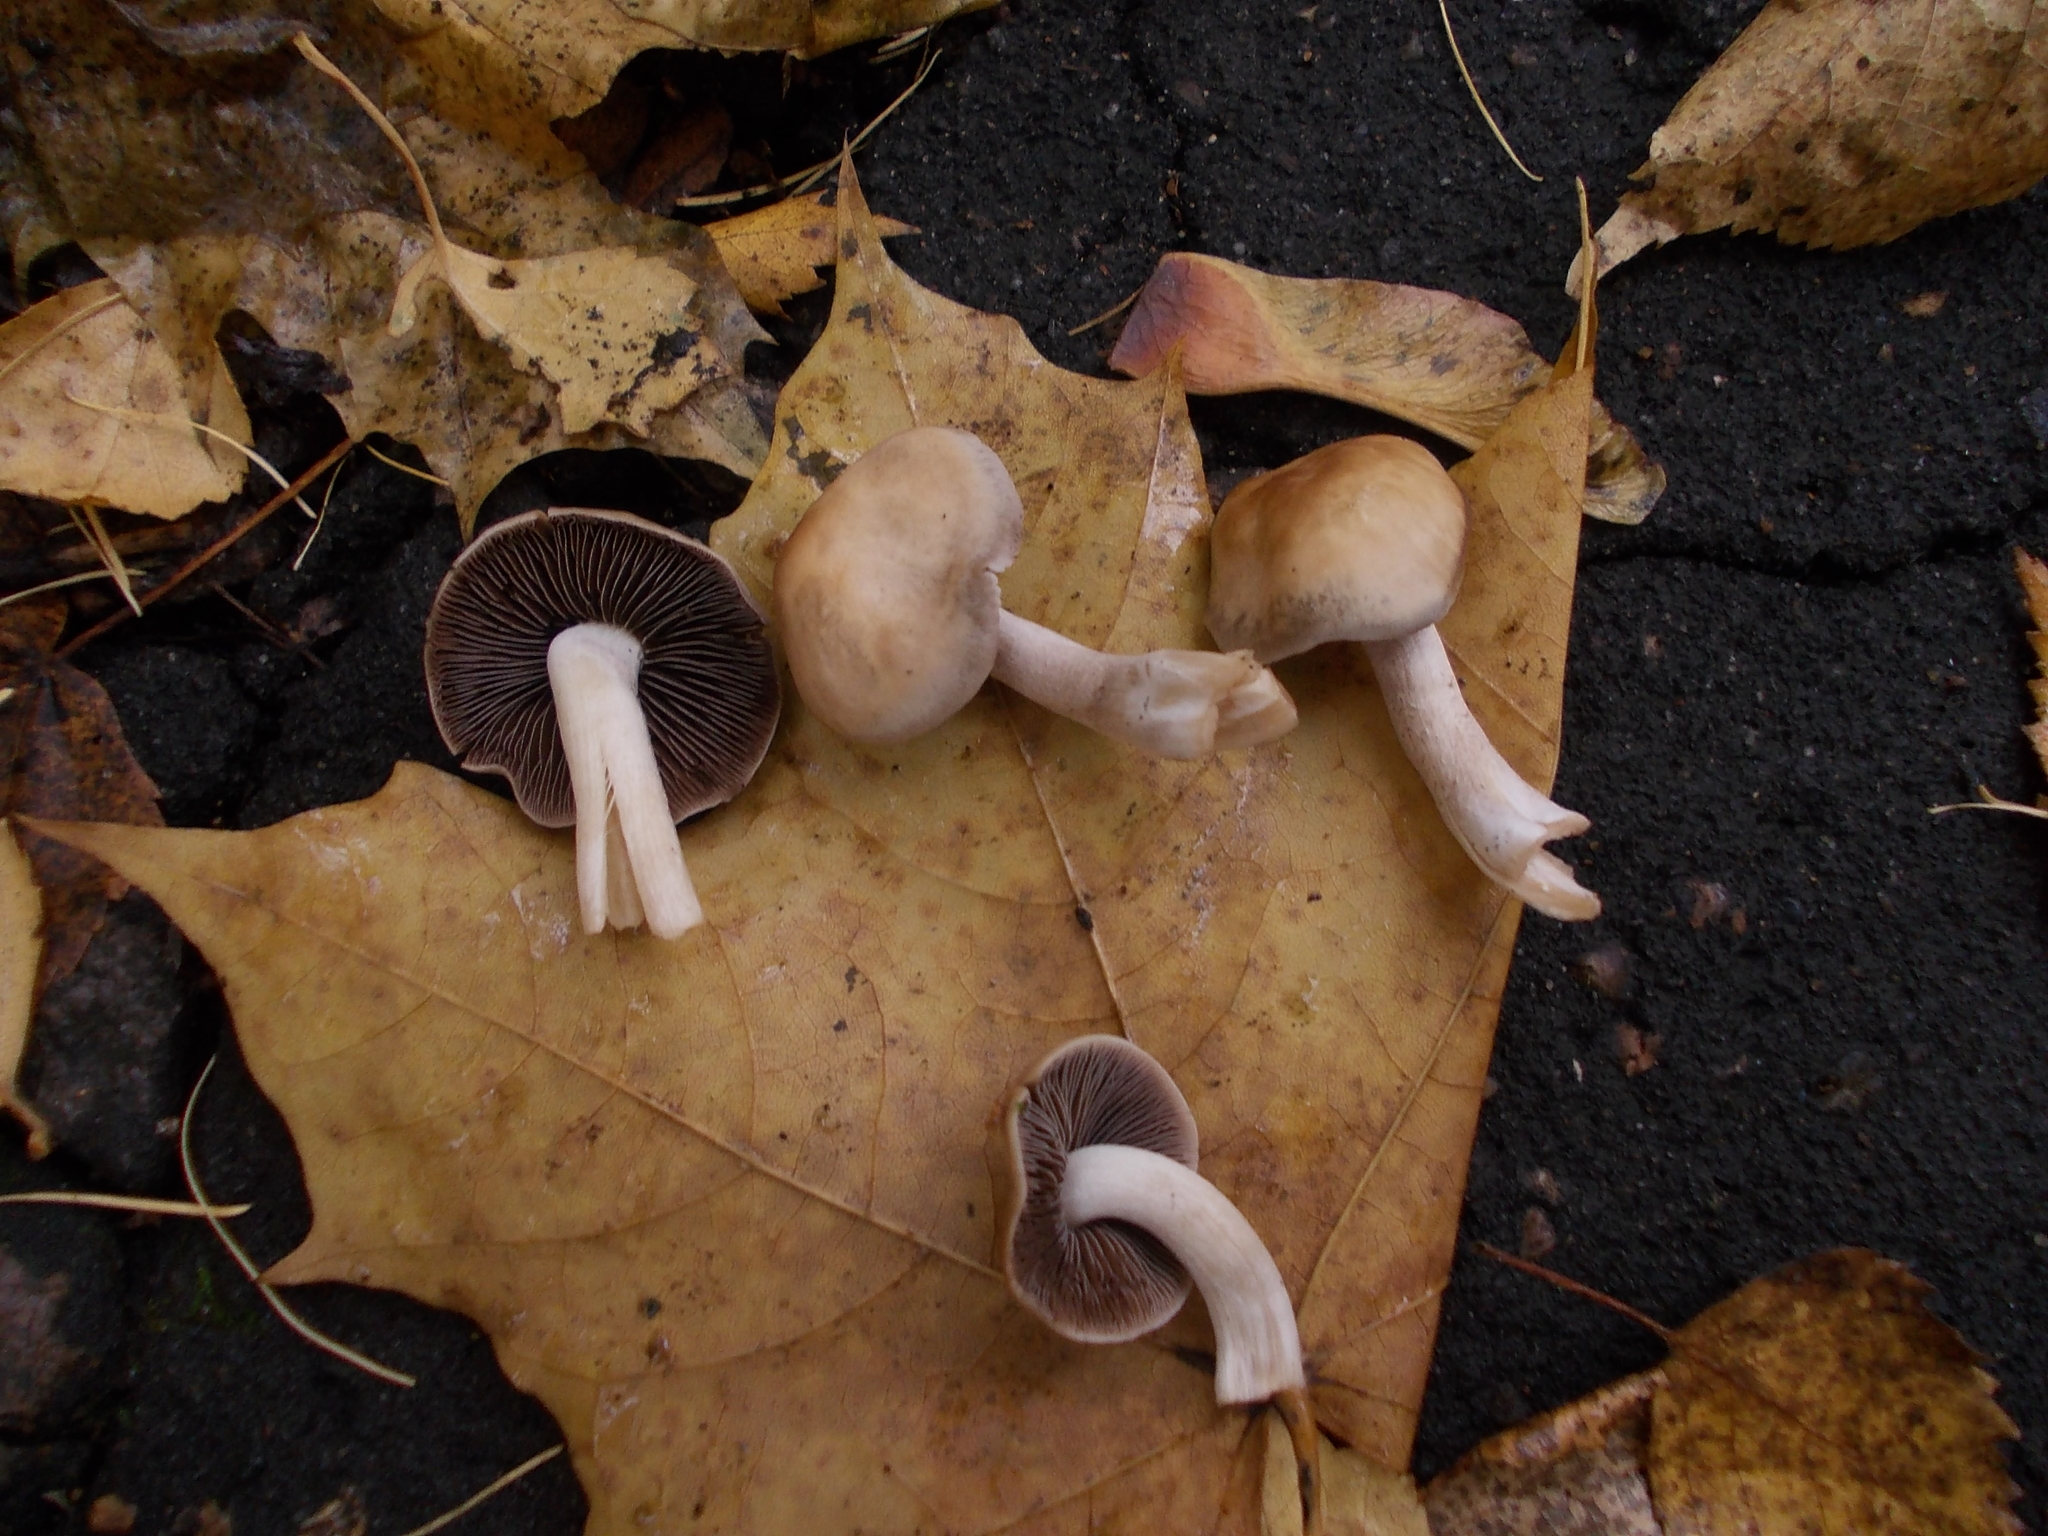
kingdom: Fungi
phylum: Basidiomycota
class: Agaricomycetes
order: Agaricales
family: Psathyrellaceae
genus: Homophron
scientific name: Homophron spadiceum
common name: Chestnut brittlestem
